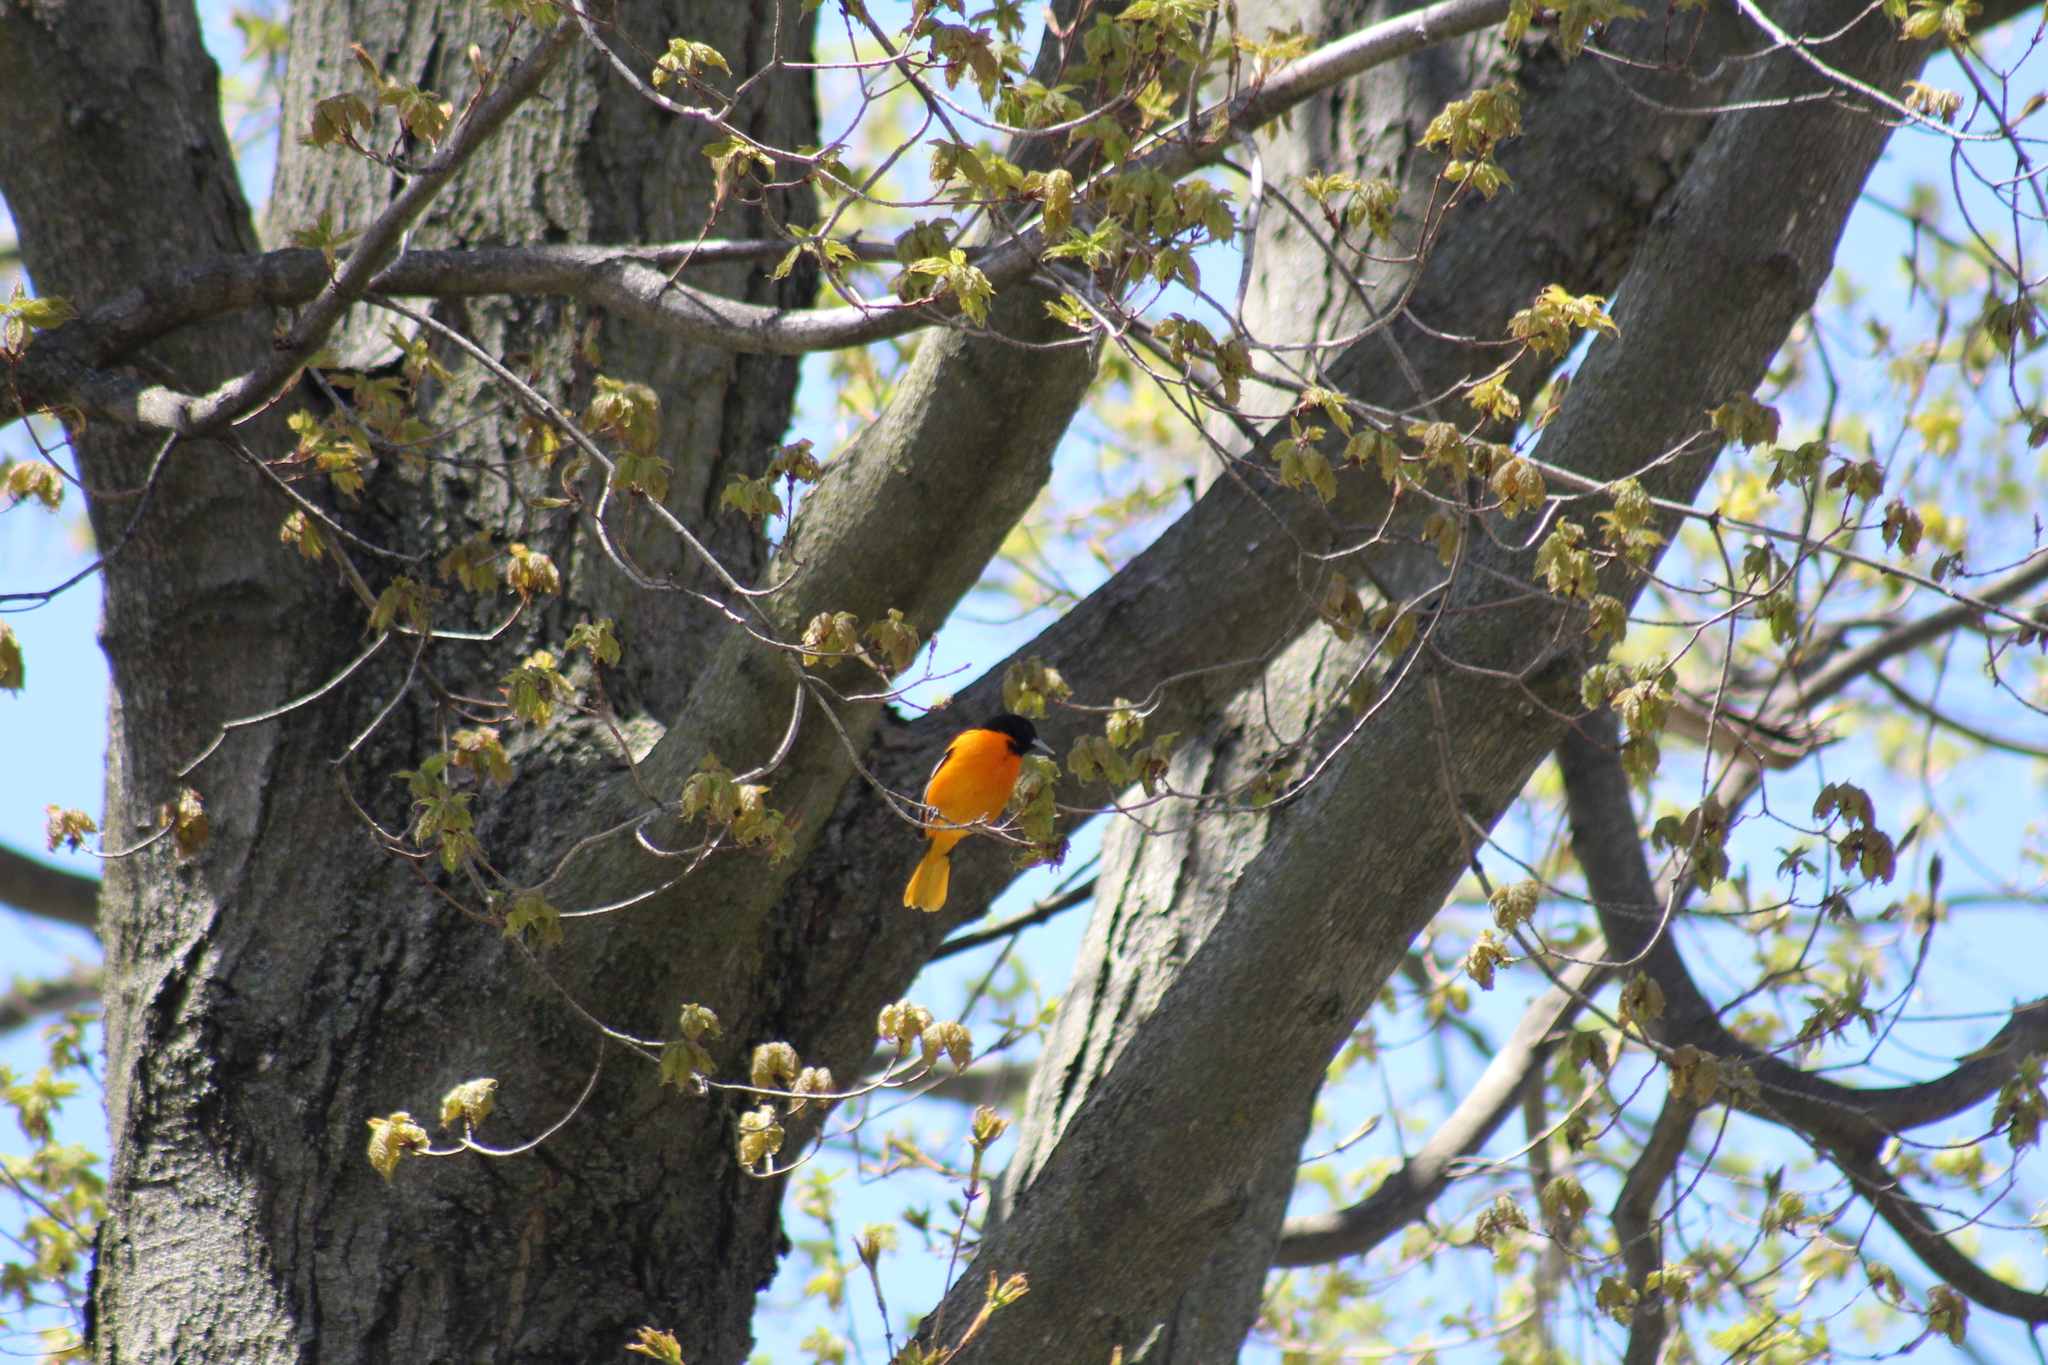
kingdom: Animalia
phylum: Chordata
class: Aves
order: Passeriformes
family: Icteridae
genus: Icterus
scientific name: Icterus galbula
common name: Baltimore oriole
